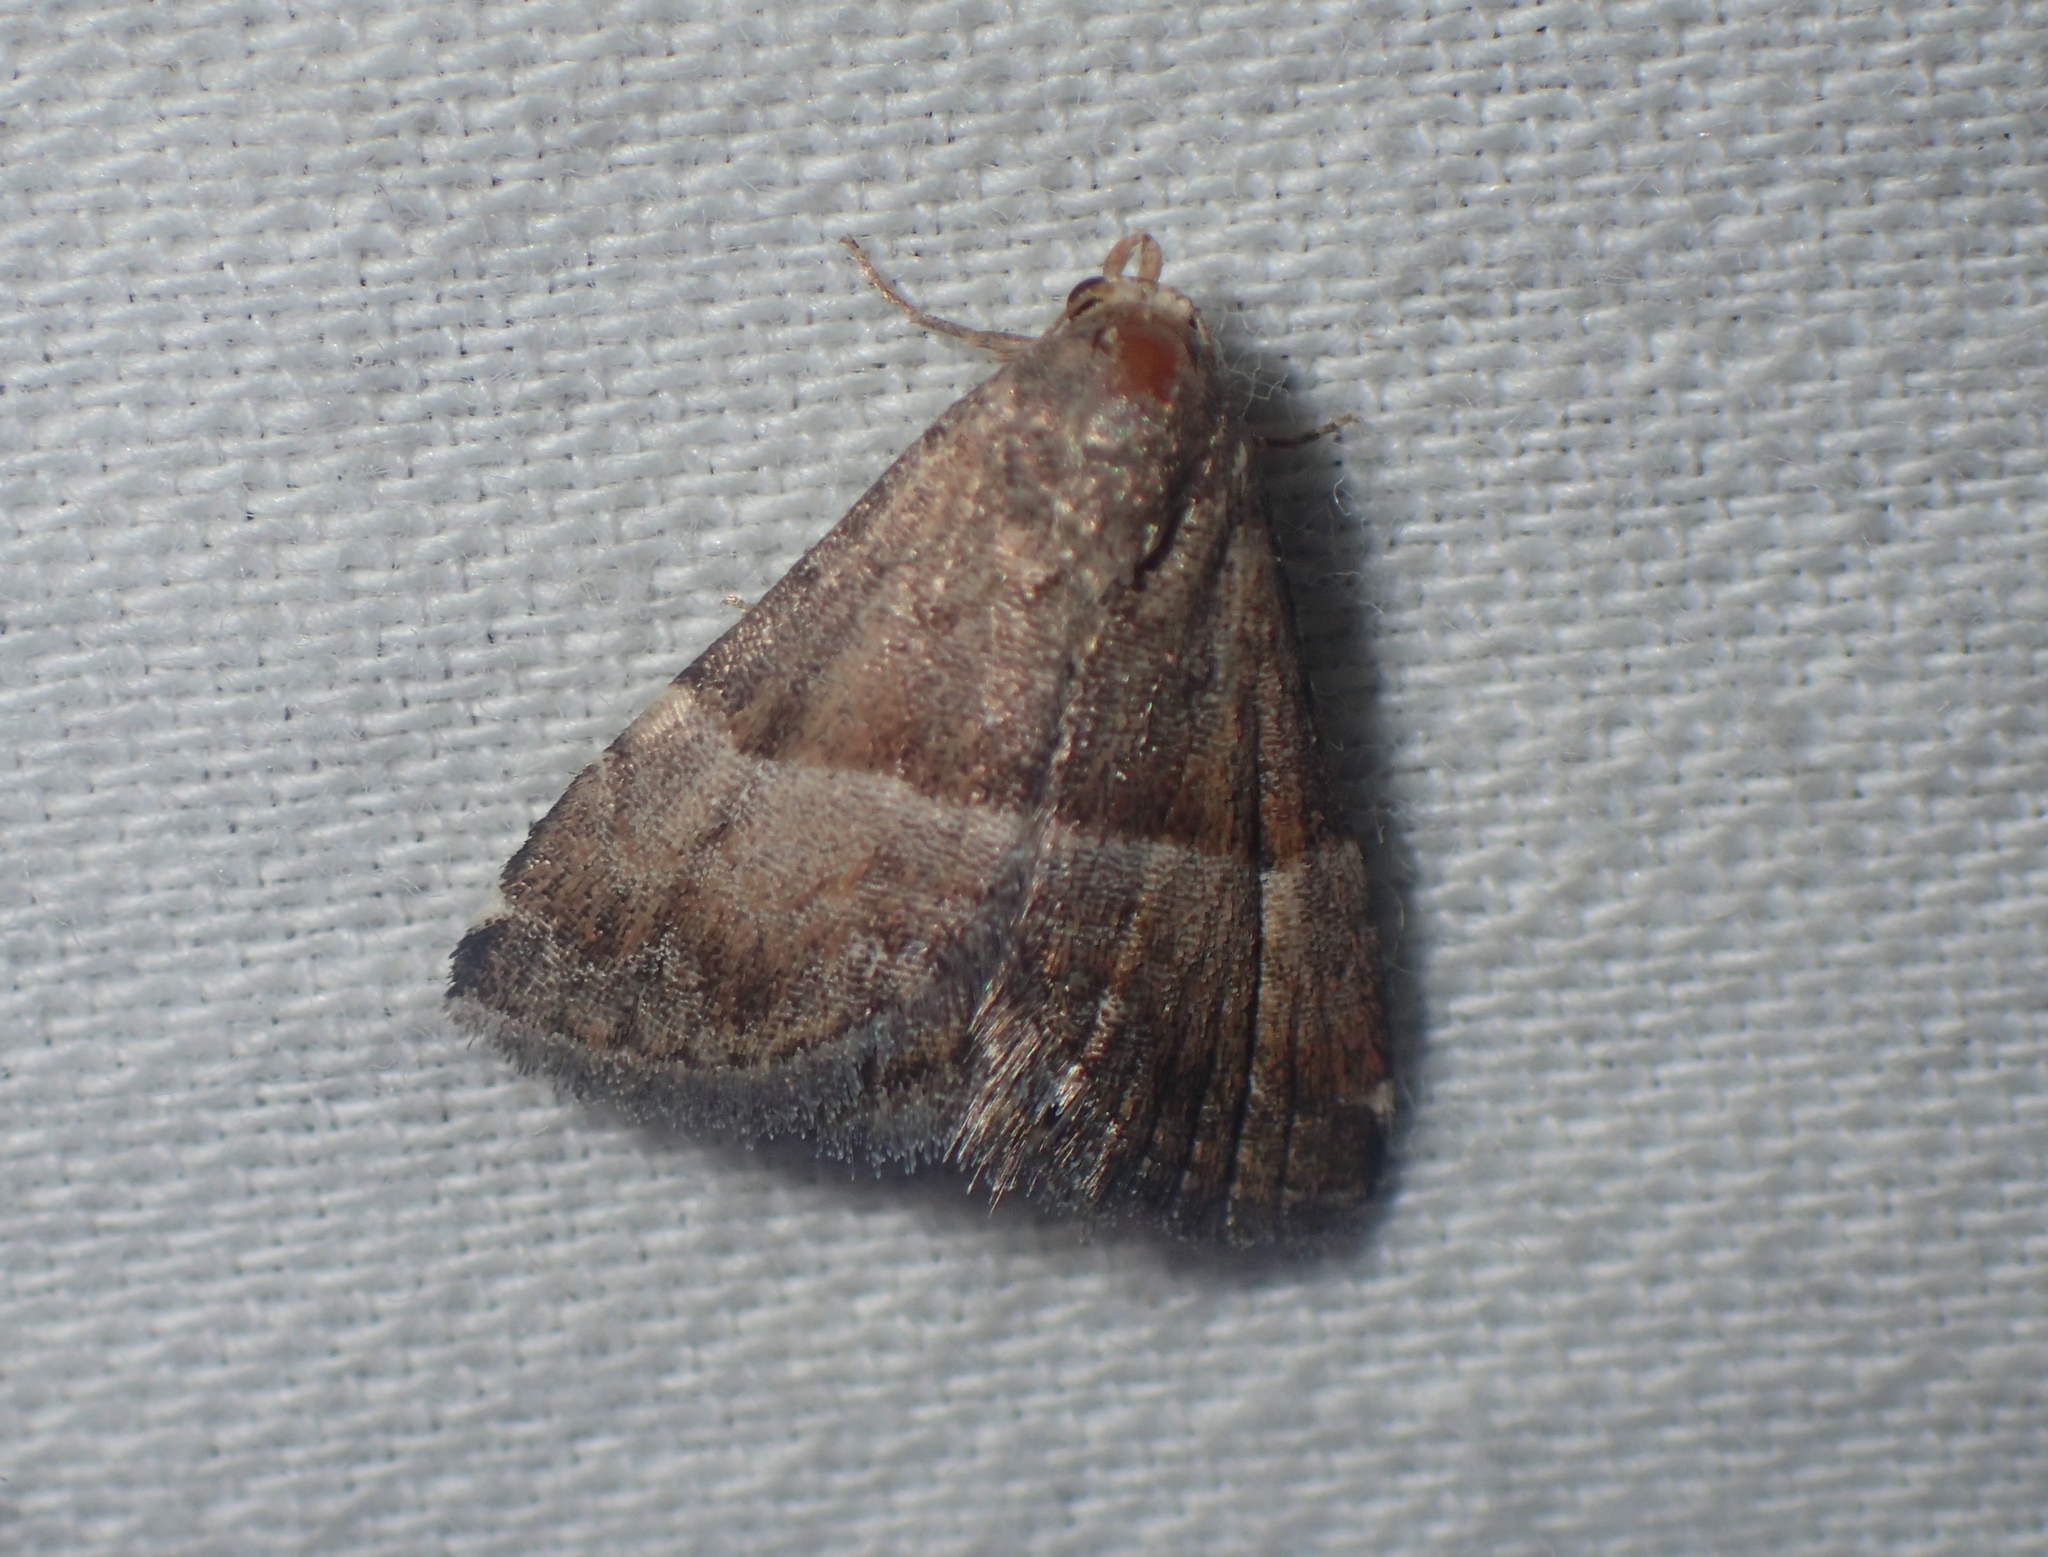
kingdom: Animalia
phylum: Arthropoda
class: Insecta
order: Lepidoptera
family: Noctuidae
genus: Odice
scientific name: Odice jucunda
